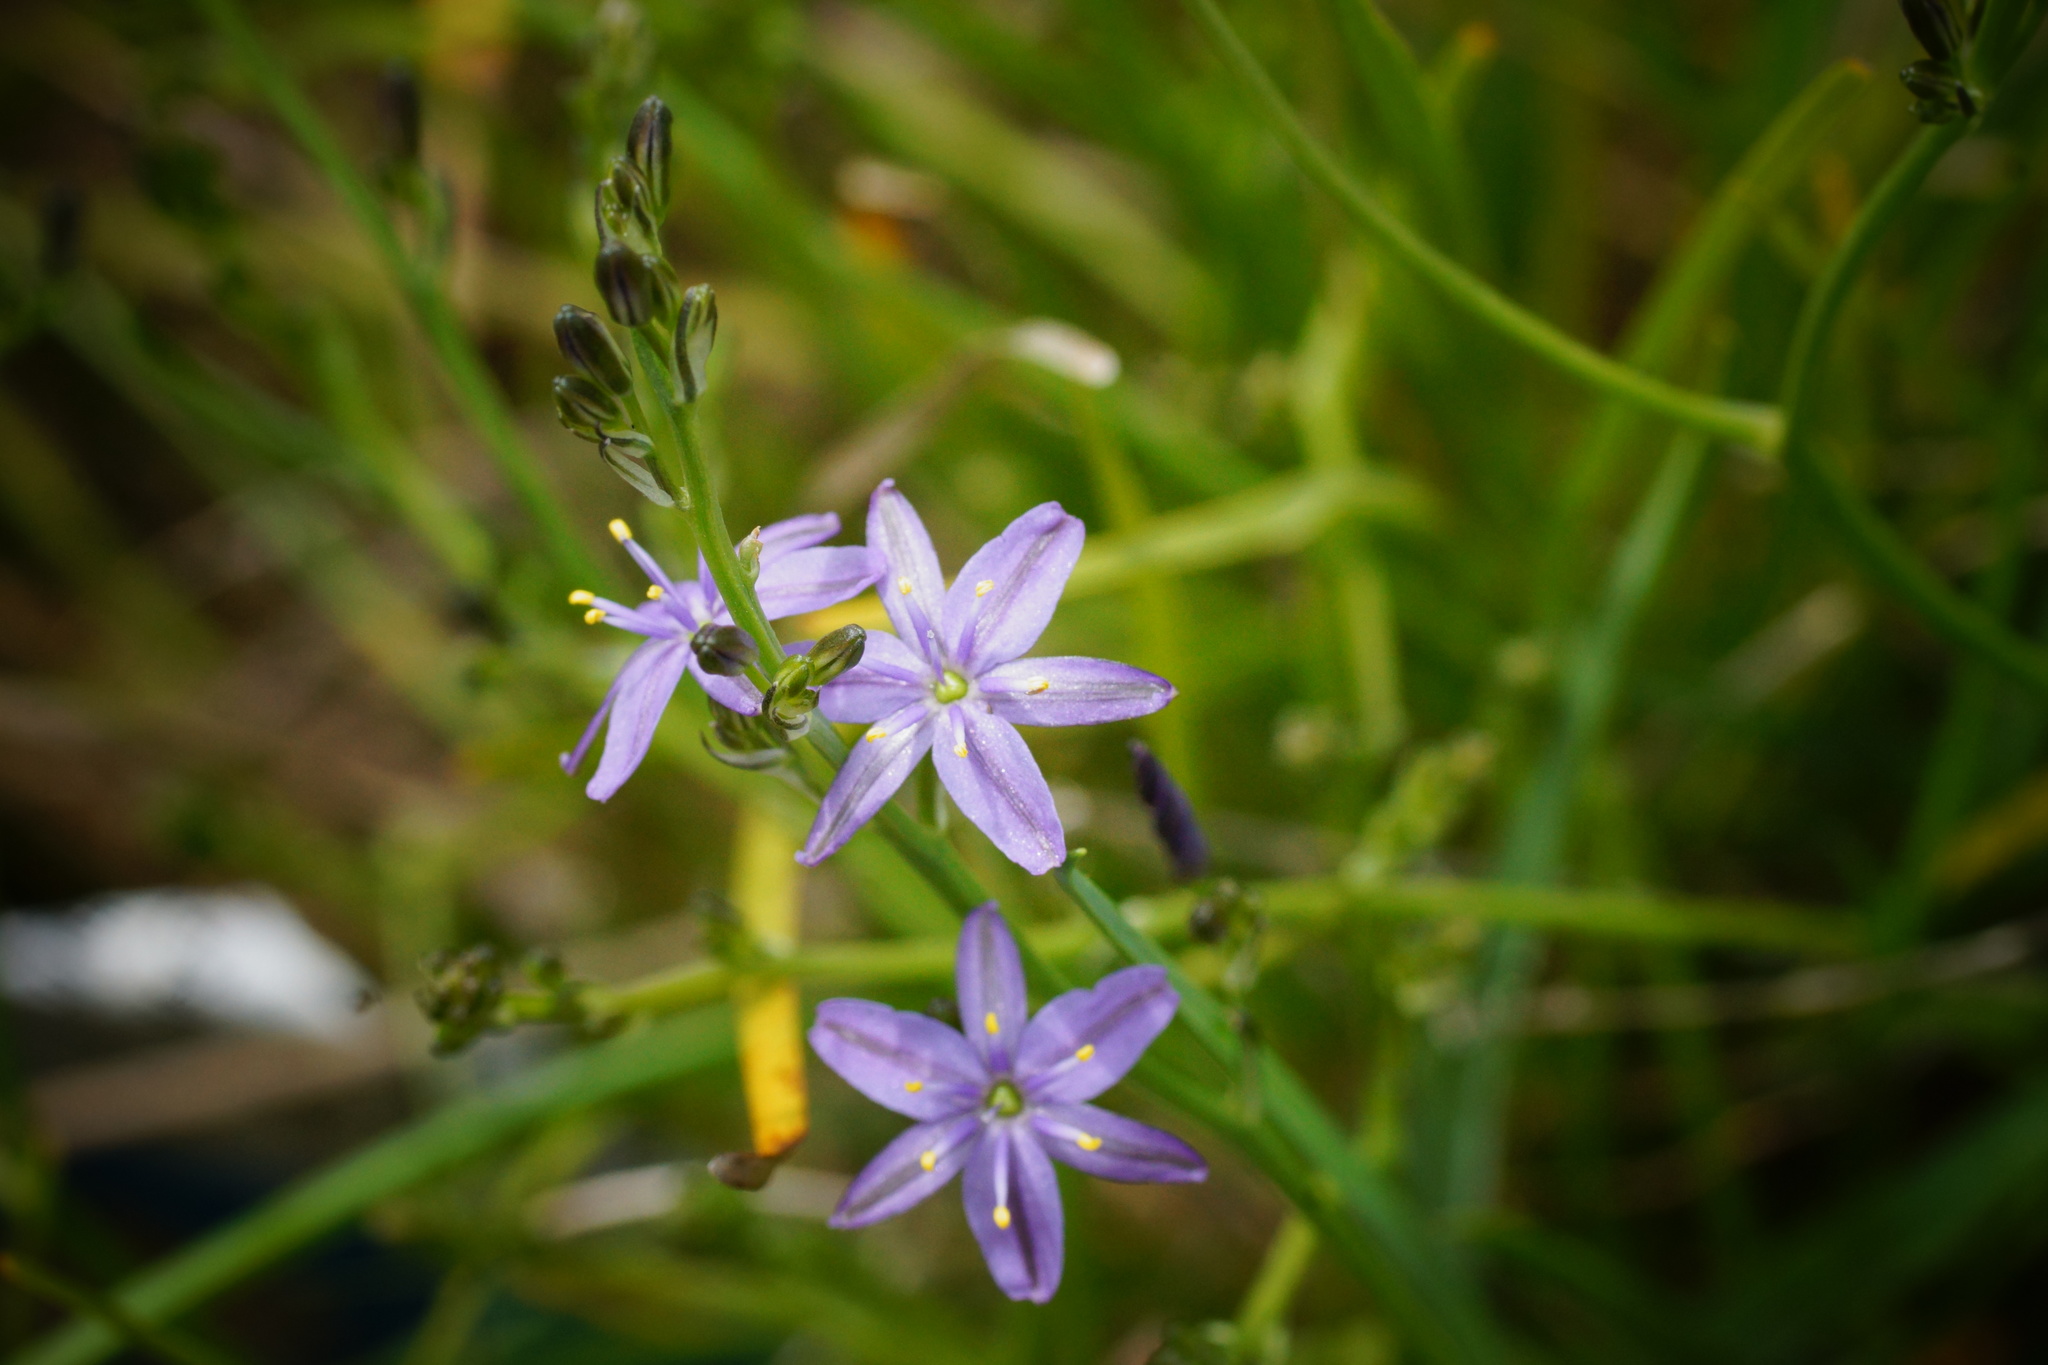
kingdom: Plantae
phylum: Tracheophyta
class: Liliopsida
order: Asparagales
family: Asphodelaceae
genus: Caesia
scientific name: Caesia calliantha
